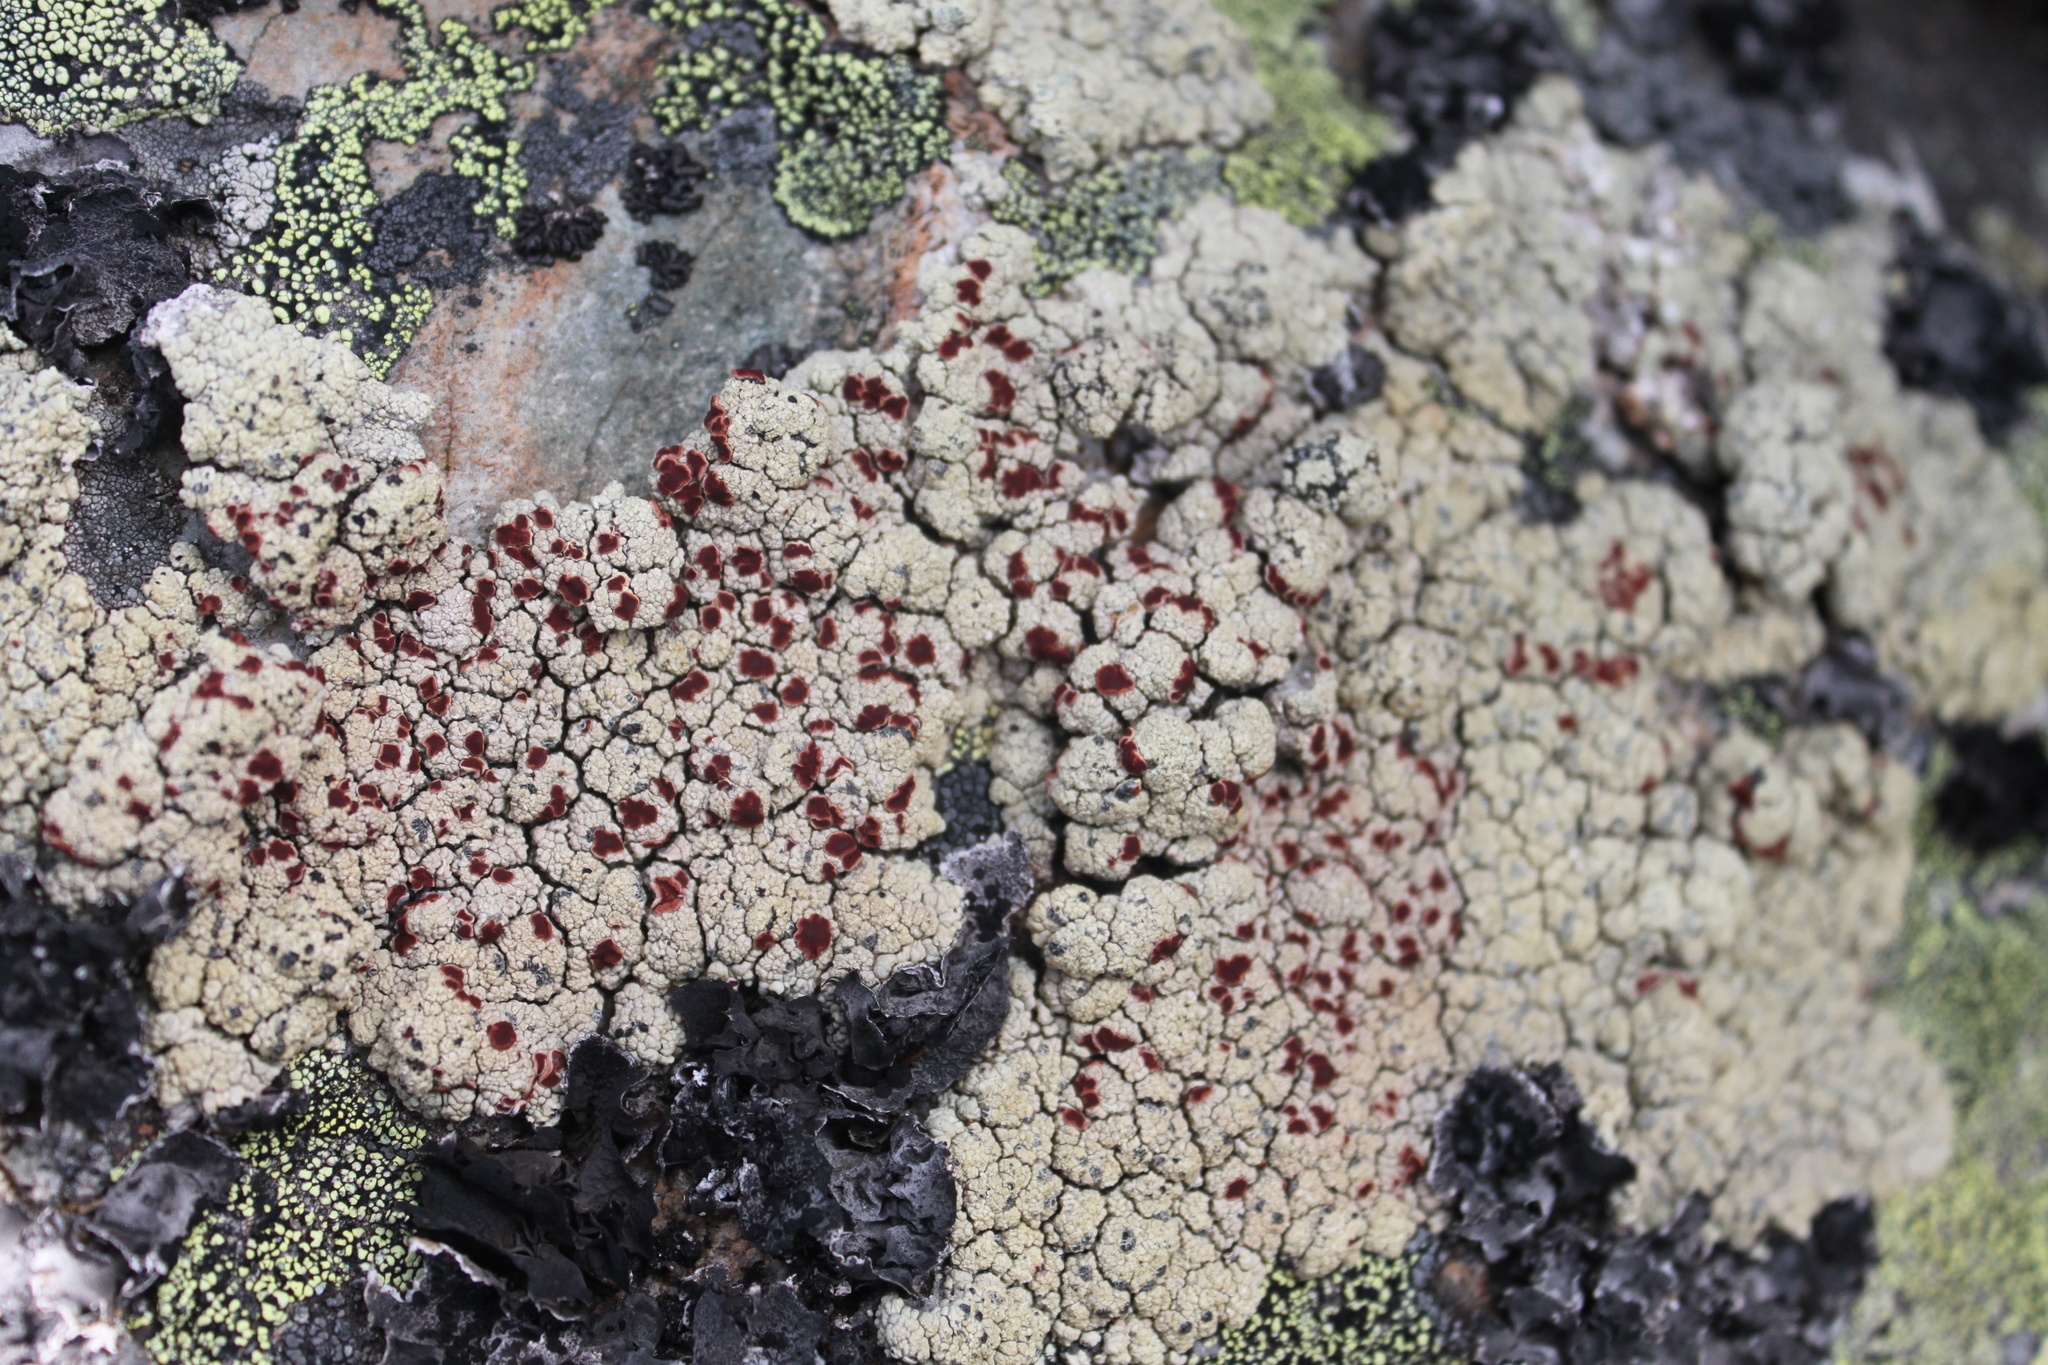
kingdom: Fungi
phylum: Ascomycota
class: Lecanoromycetes
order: Umbilicariales
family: Ophioparmaceae
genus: Ophioparma
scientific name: Ophioparma ventosa
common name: Blood-spot
